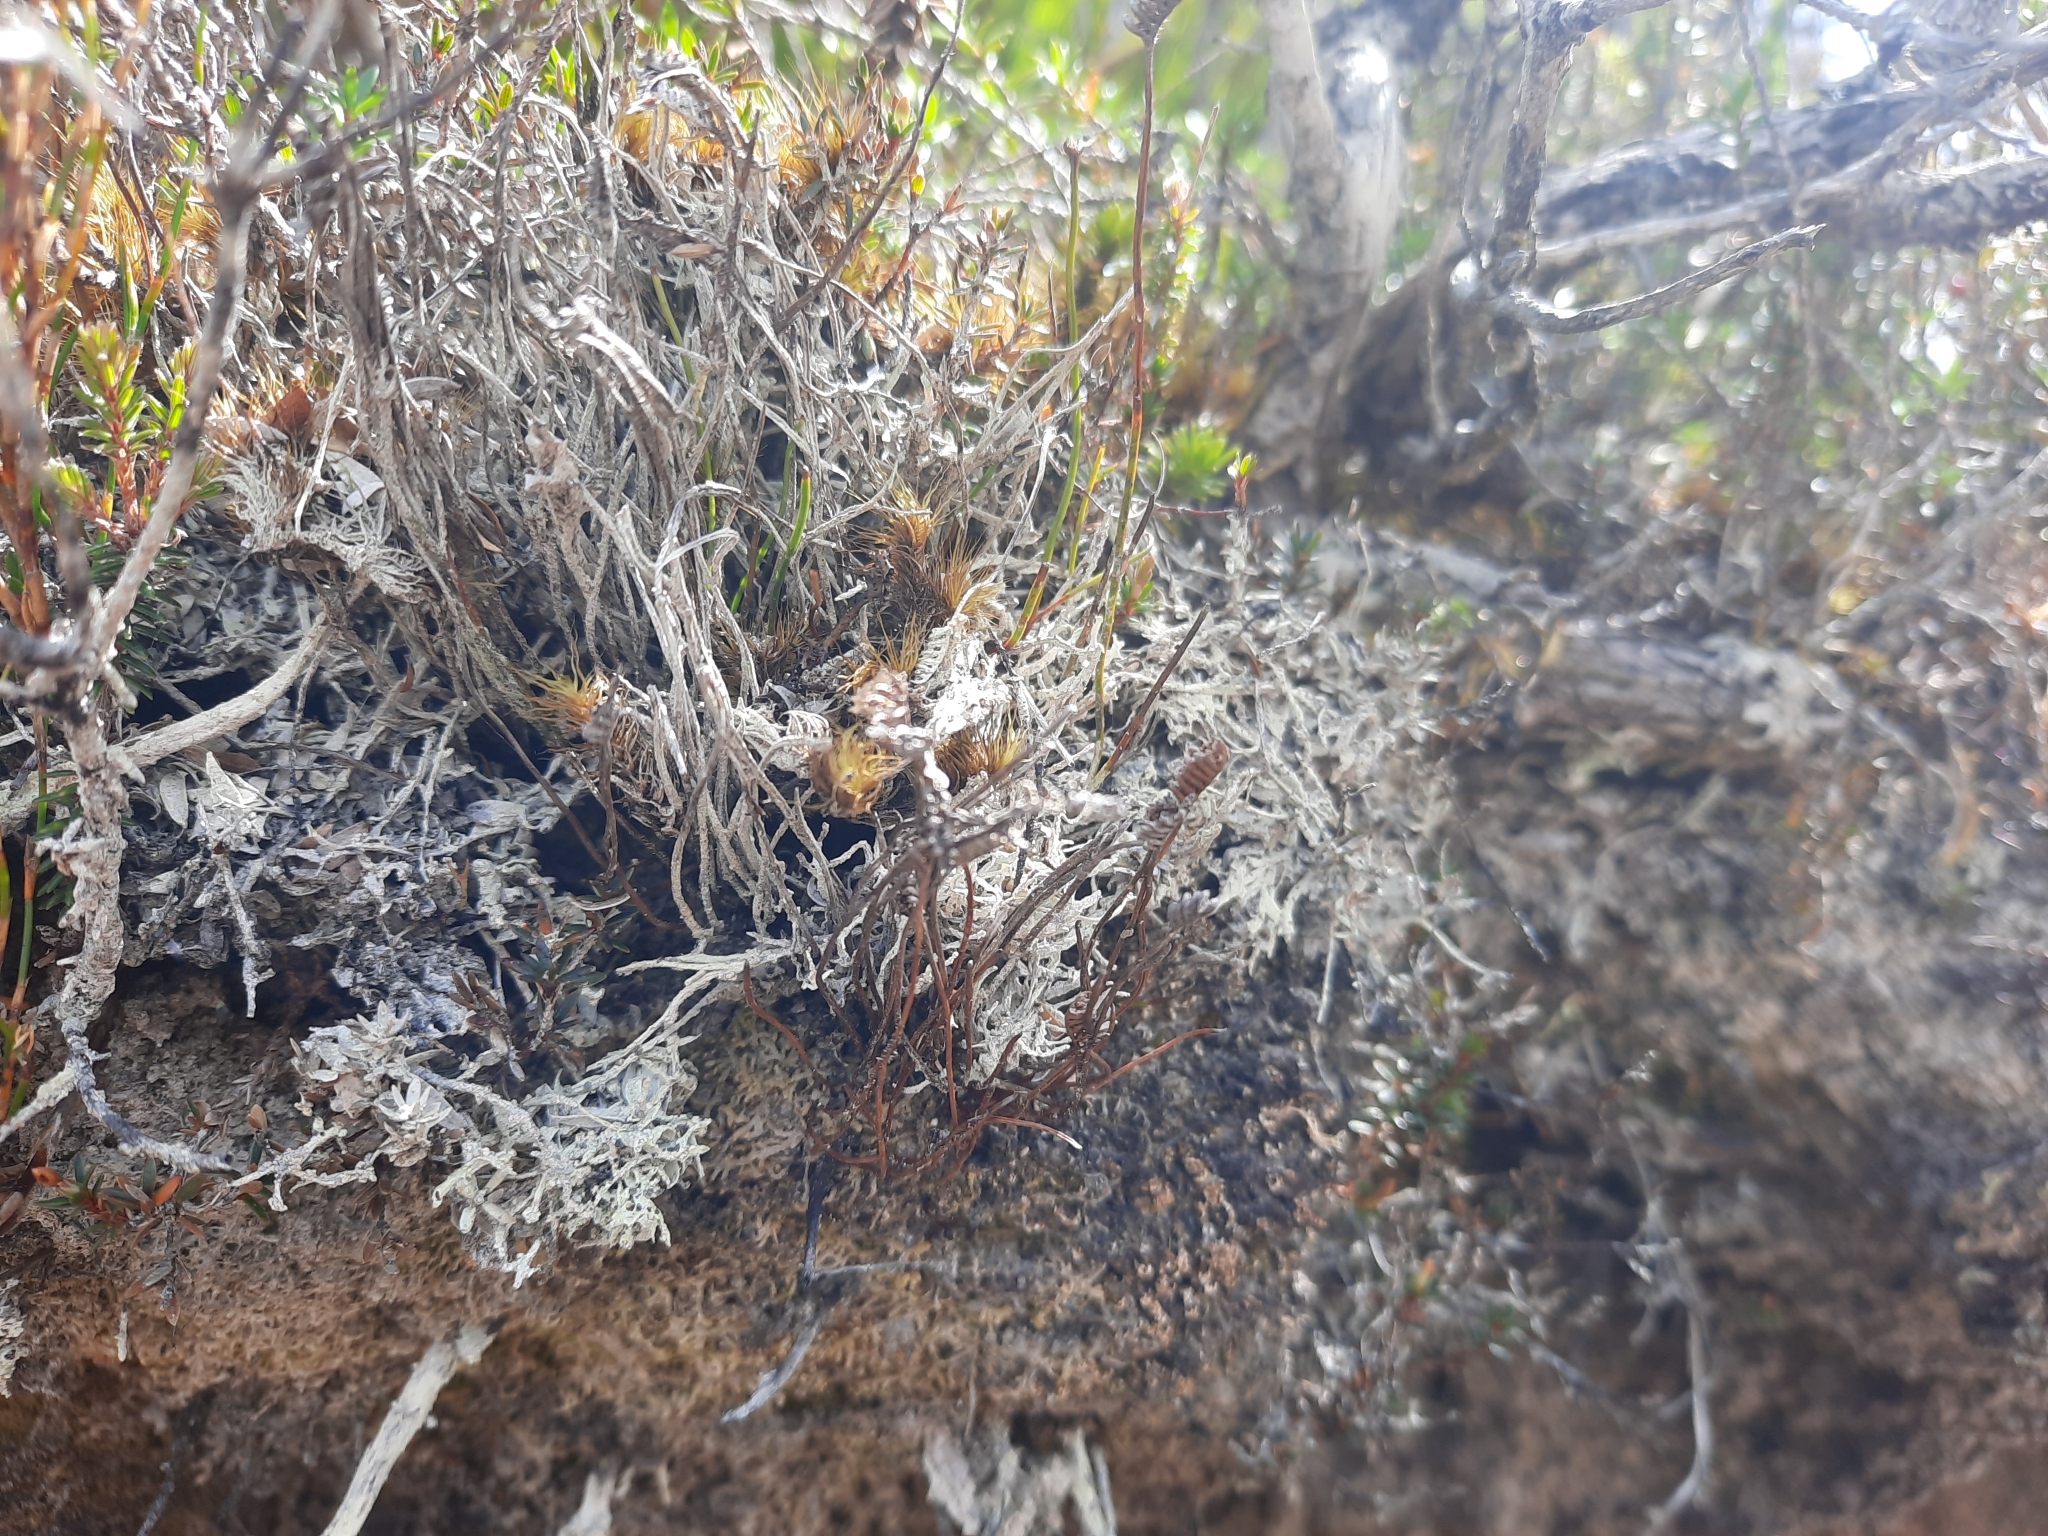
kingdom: Plantae
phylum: Tracheophyta
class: Polypodiopsida
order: Schizaeales
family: Schizaeaceae
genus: Microschizaea
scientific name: Microschizaea australis
